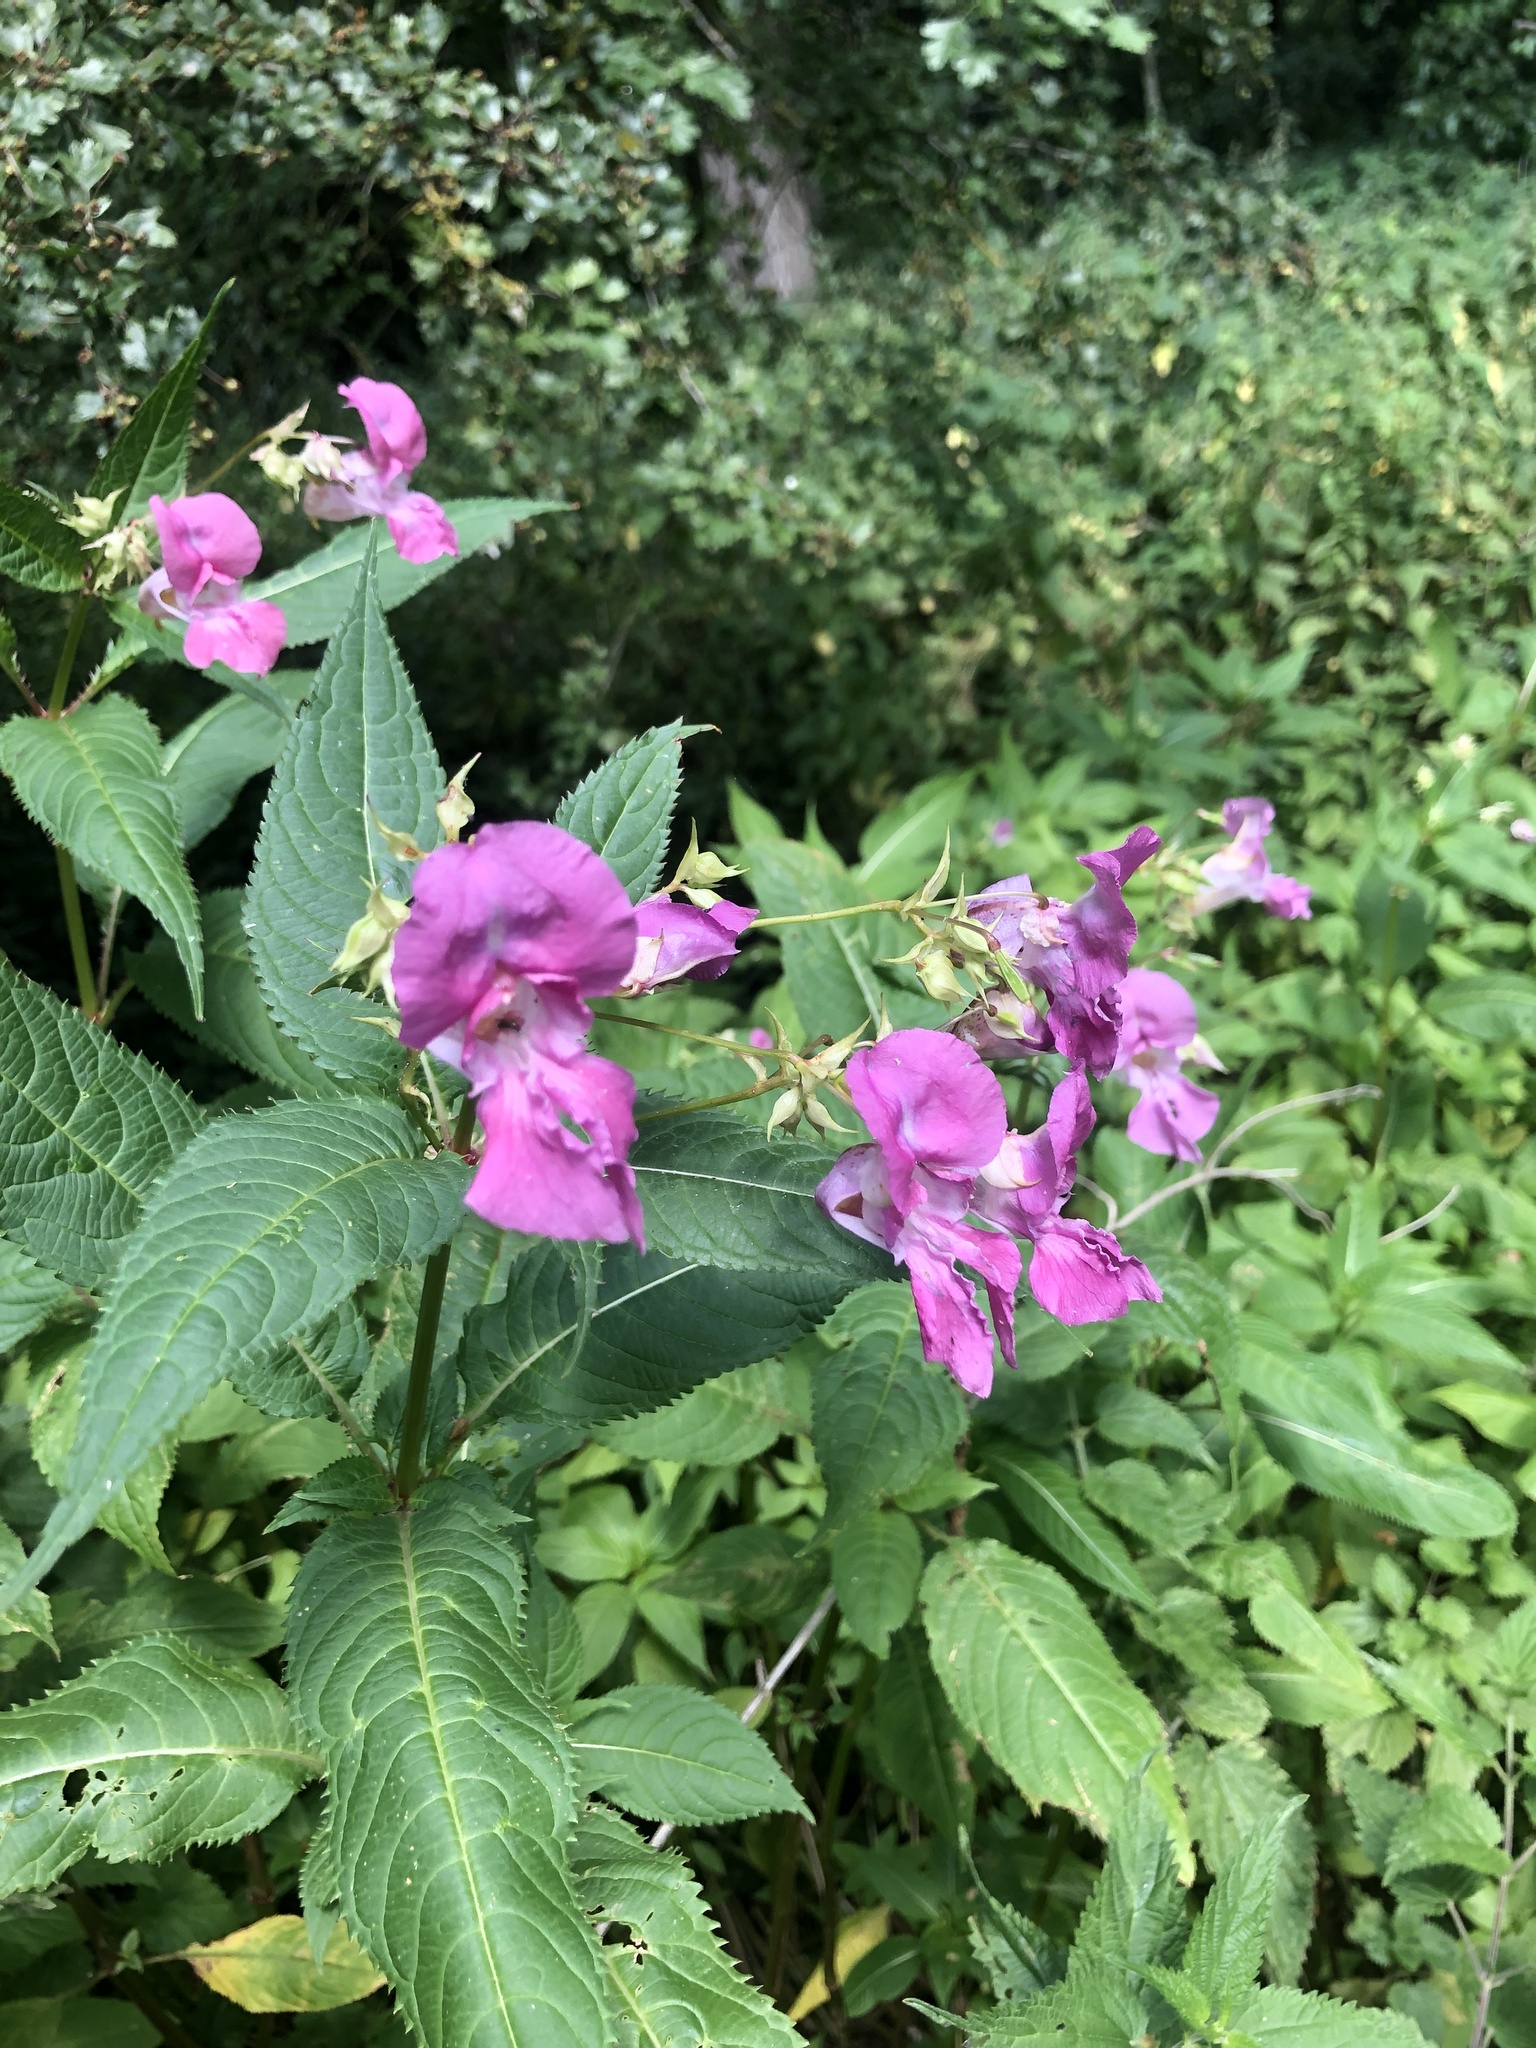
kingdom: Plantae
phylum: Tracheophyta
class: Magnoliopsida
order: Ericales
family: Balsaminaceae
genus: Impatiens
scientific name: Impatiens glandulifera
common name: Himalayan balsam
